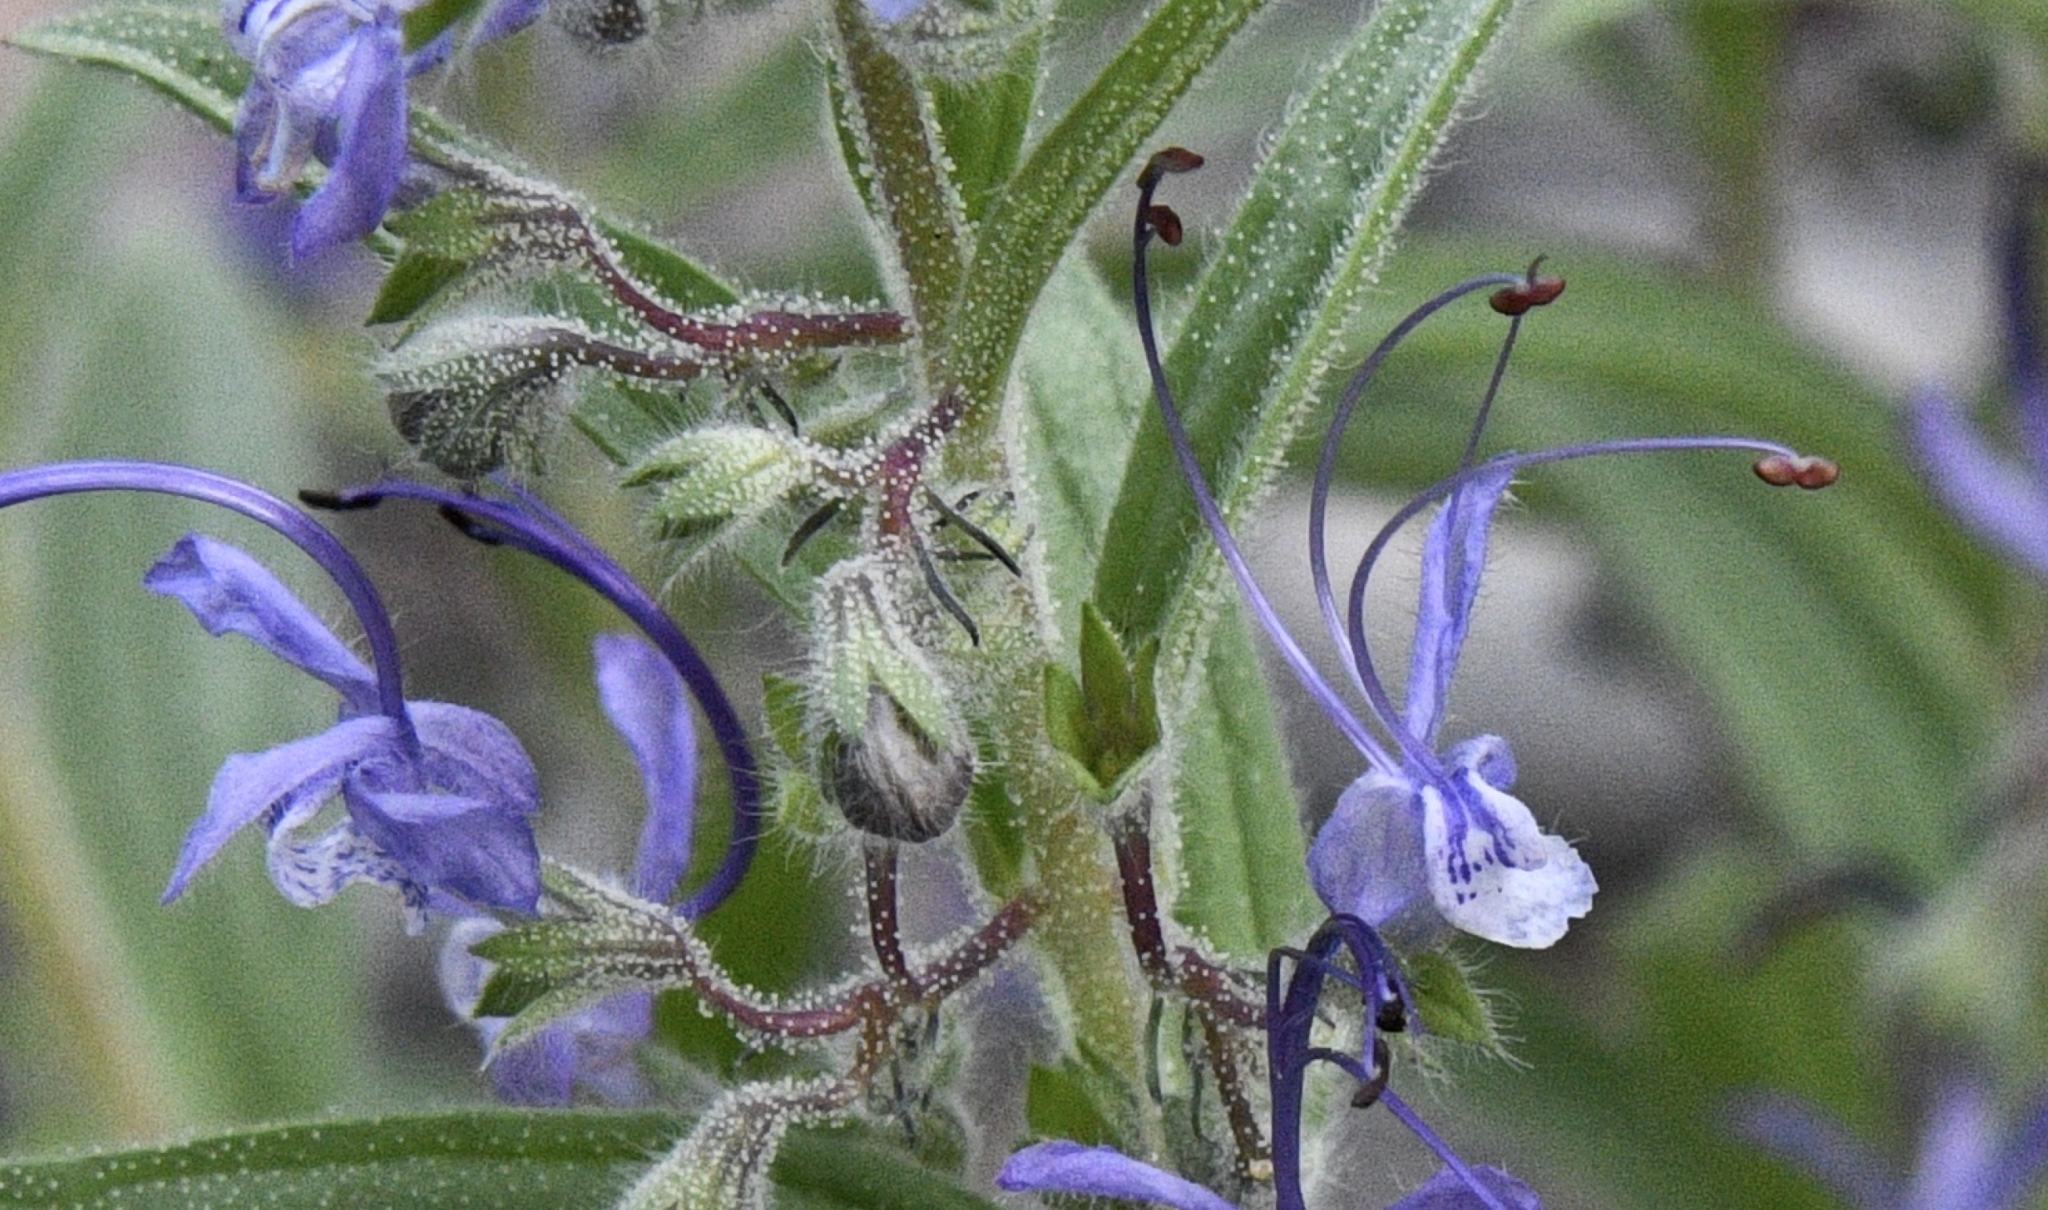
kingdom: Plantae
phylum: Tracheophyta
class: Magnoliopsida
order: Lamiales
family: Lamiaceae
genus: Trichostema
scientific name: Trichostema lanceolatum
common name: Vinegar-weed
